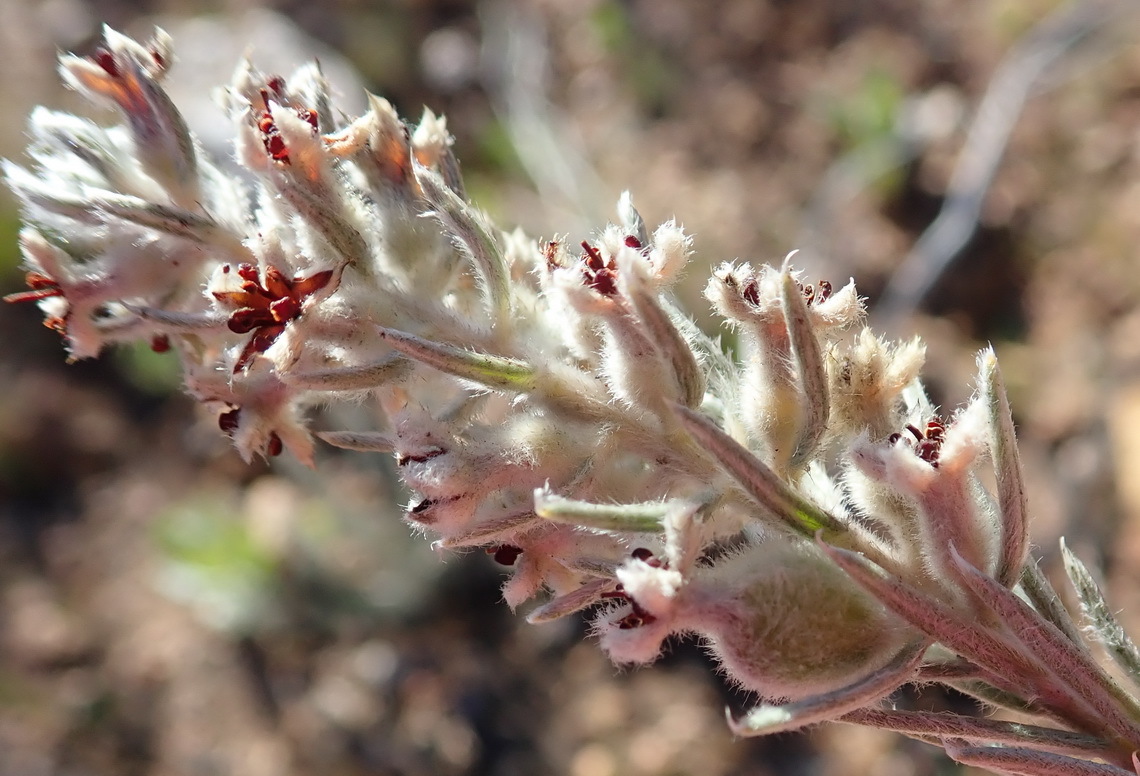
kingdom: Plantae
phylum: Tracheophyta
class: Magnoliopsida
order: Rosales
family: Rhamnaceae
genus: Phylica
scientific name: Phylica willdenowiana
